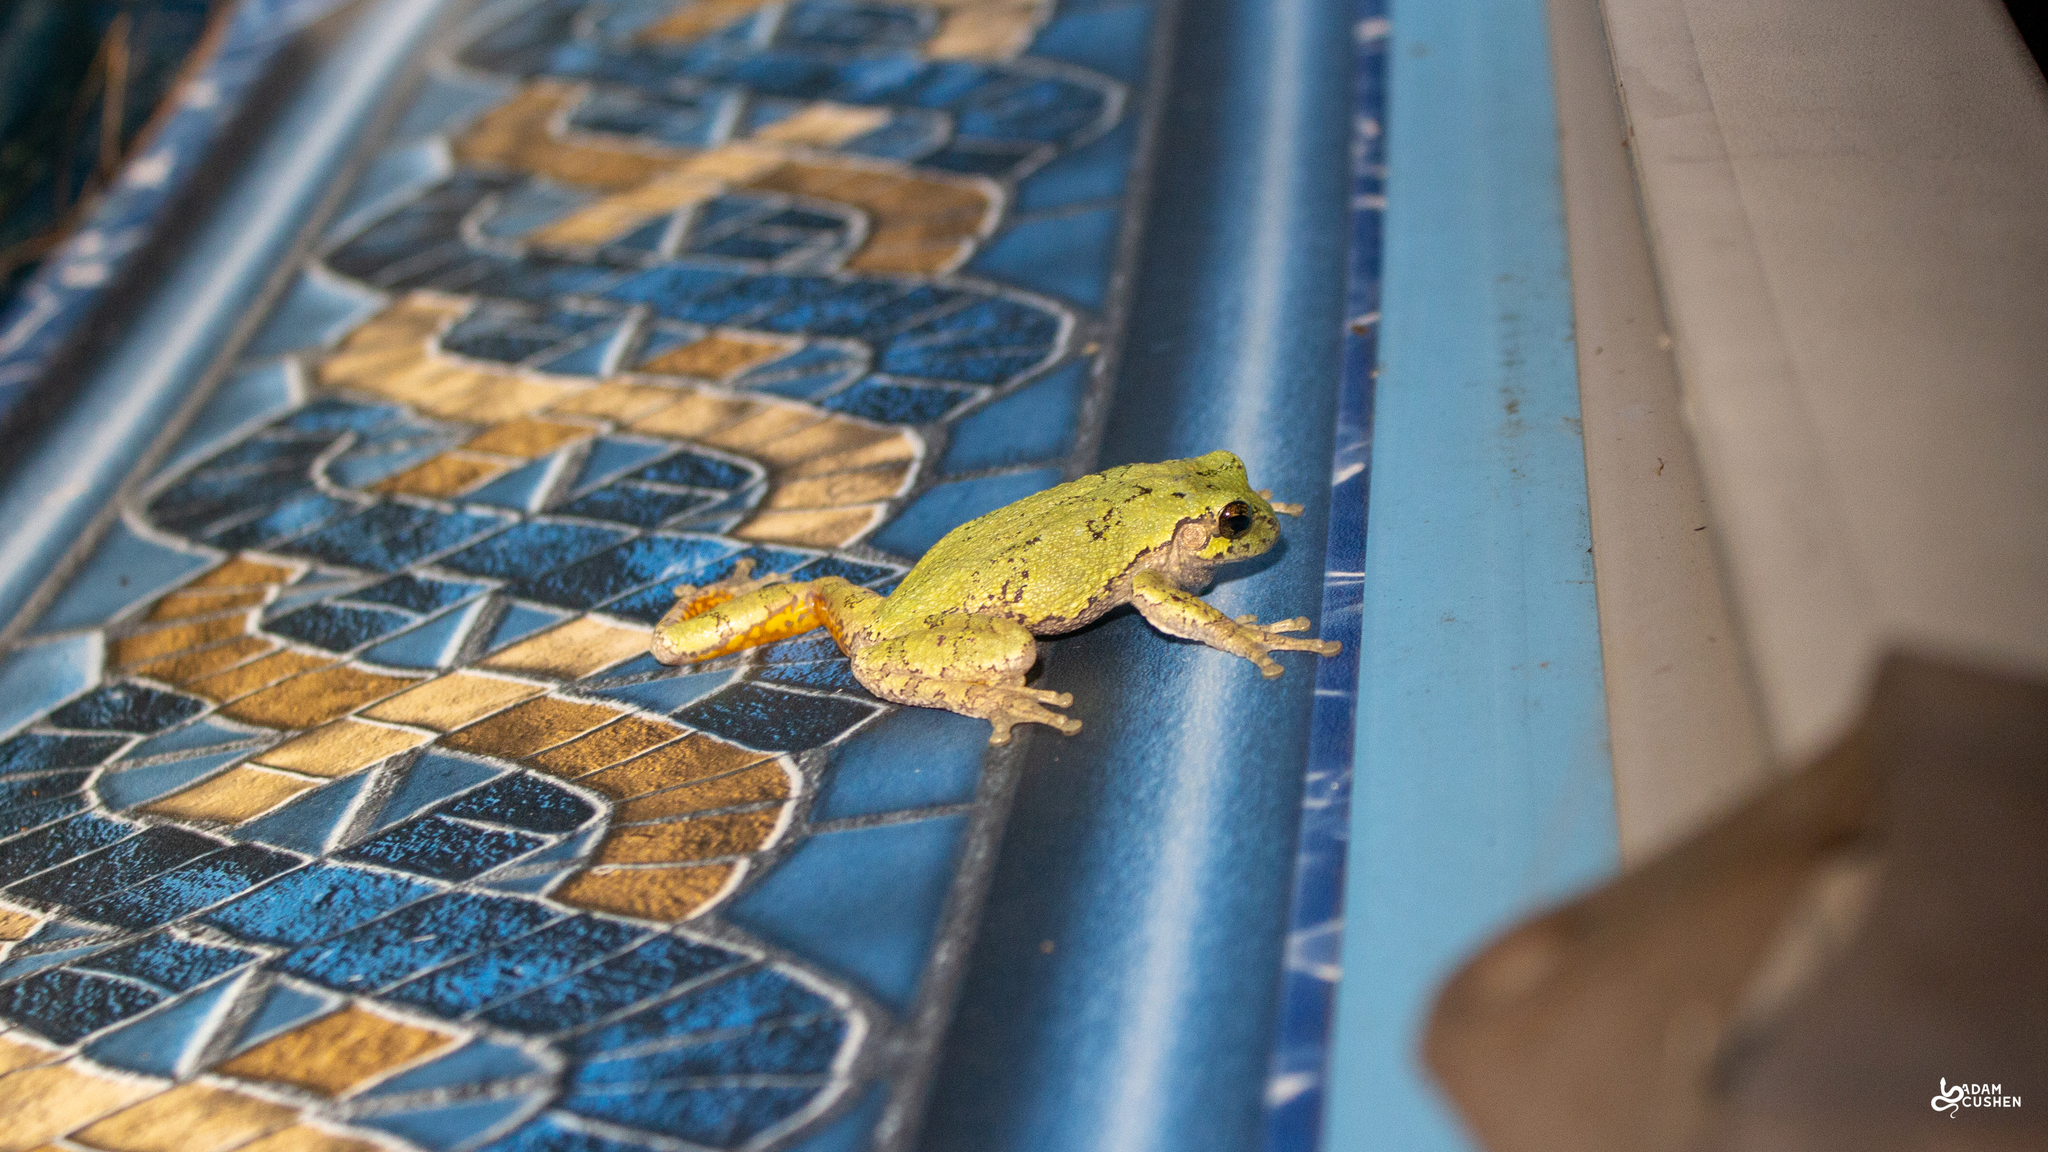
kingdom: Animalia
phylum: Chordata
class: Amphibia
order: Anura
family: Hylidae
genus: Dryophytes
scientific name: Dryophytes versicolor
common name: Gray treefrog
